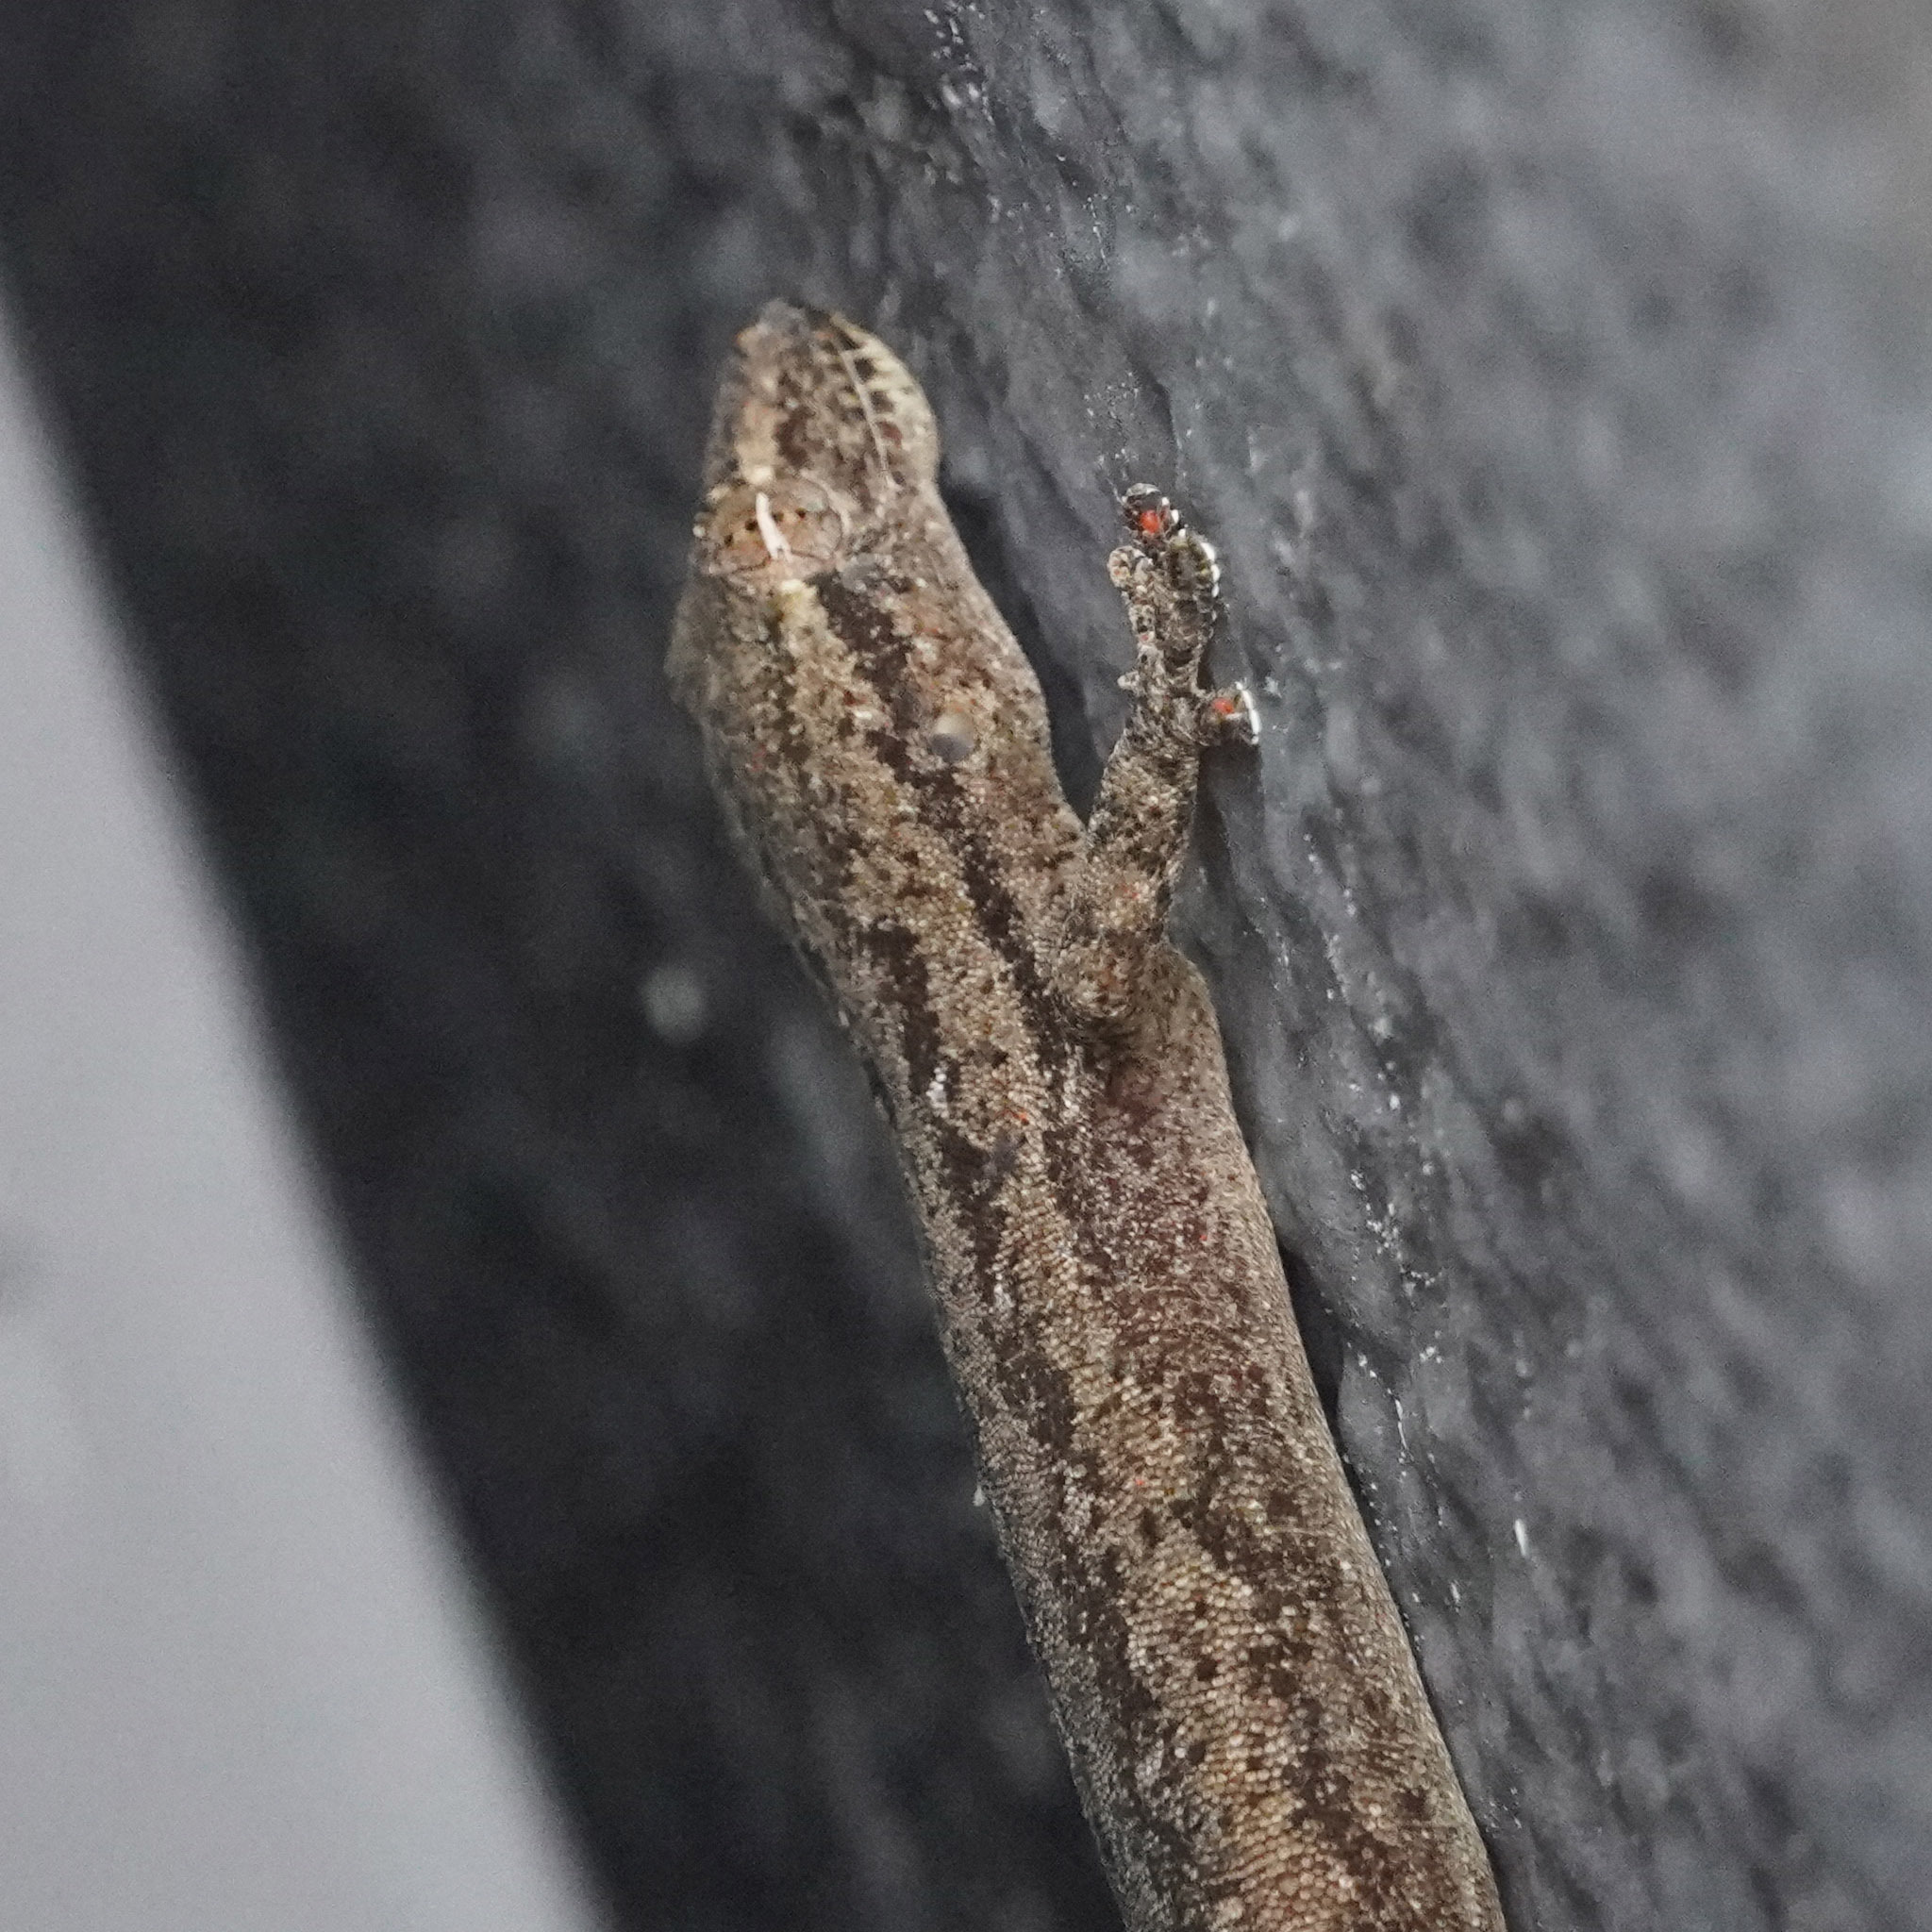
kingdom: Animalia
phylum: Chordata
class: Squamata
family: Gekkonidae
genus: Hemidactylus
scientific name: Hemidactylus frenatus
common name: Common house gecko
